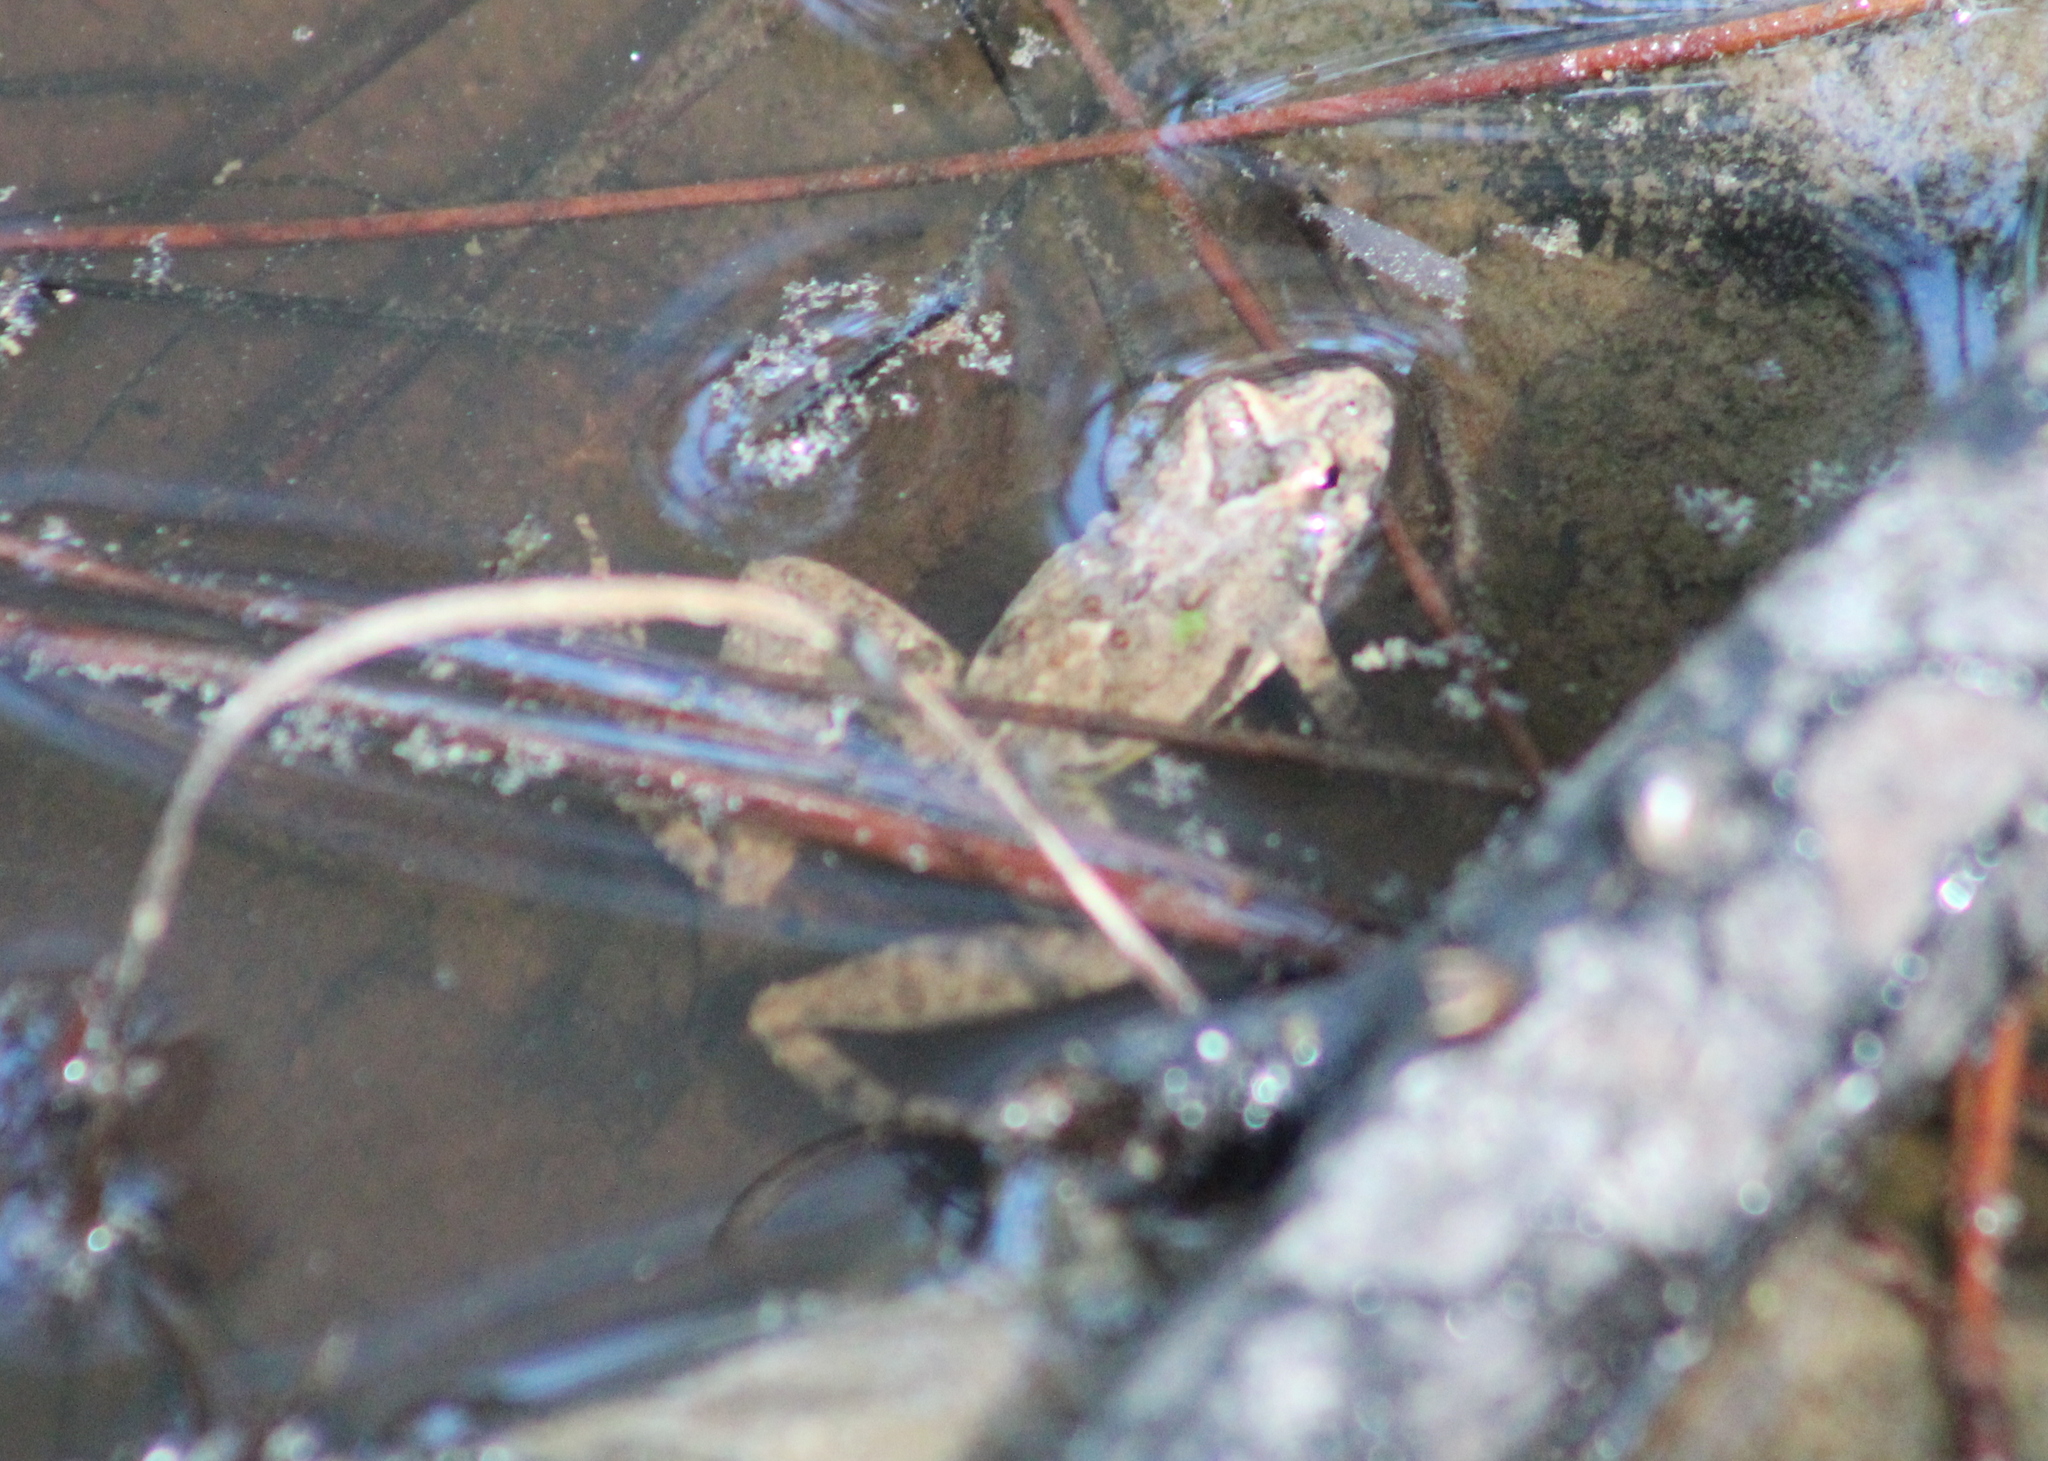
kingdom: Animalia
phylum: Chordata
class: Amphibia
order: Anura
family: Hylidae
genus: Acris
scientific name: Acris blanchardi
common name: Blanchard's cricket frog
